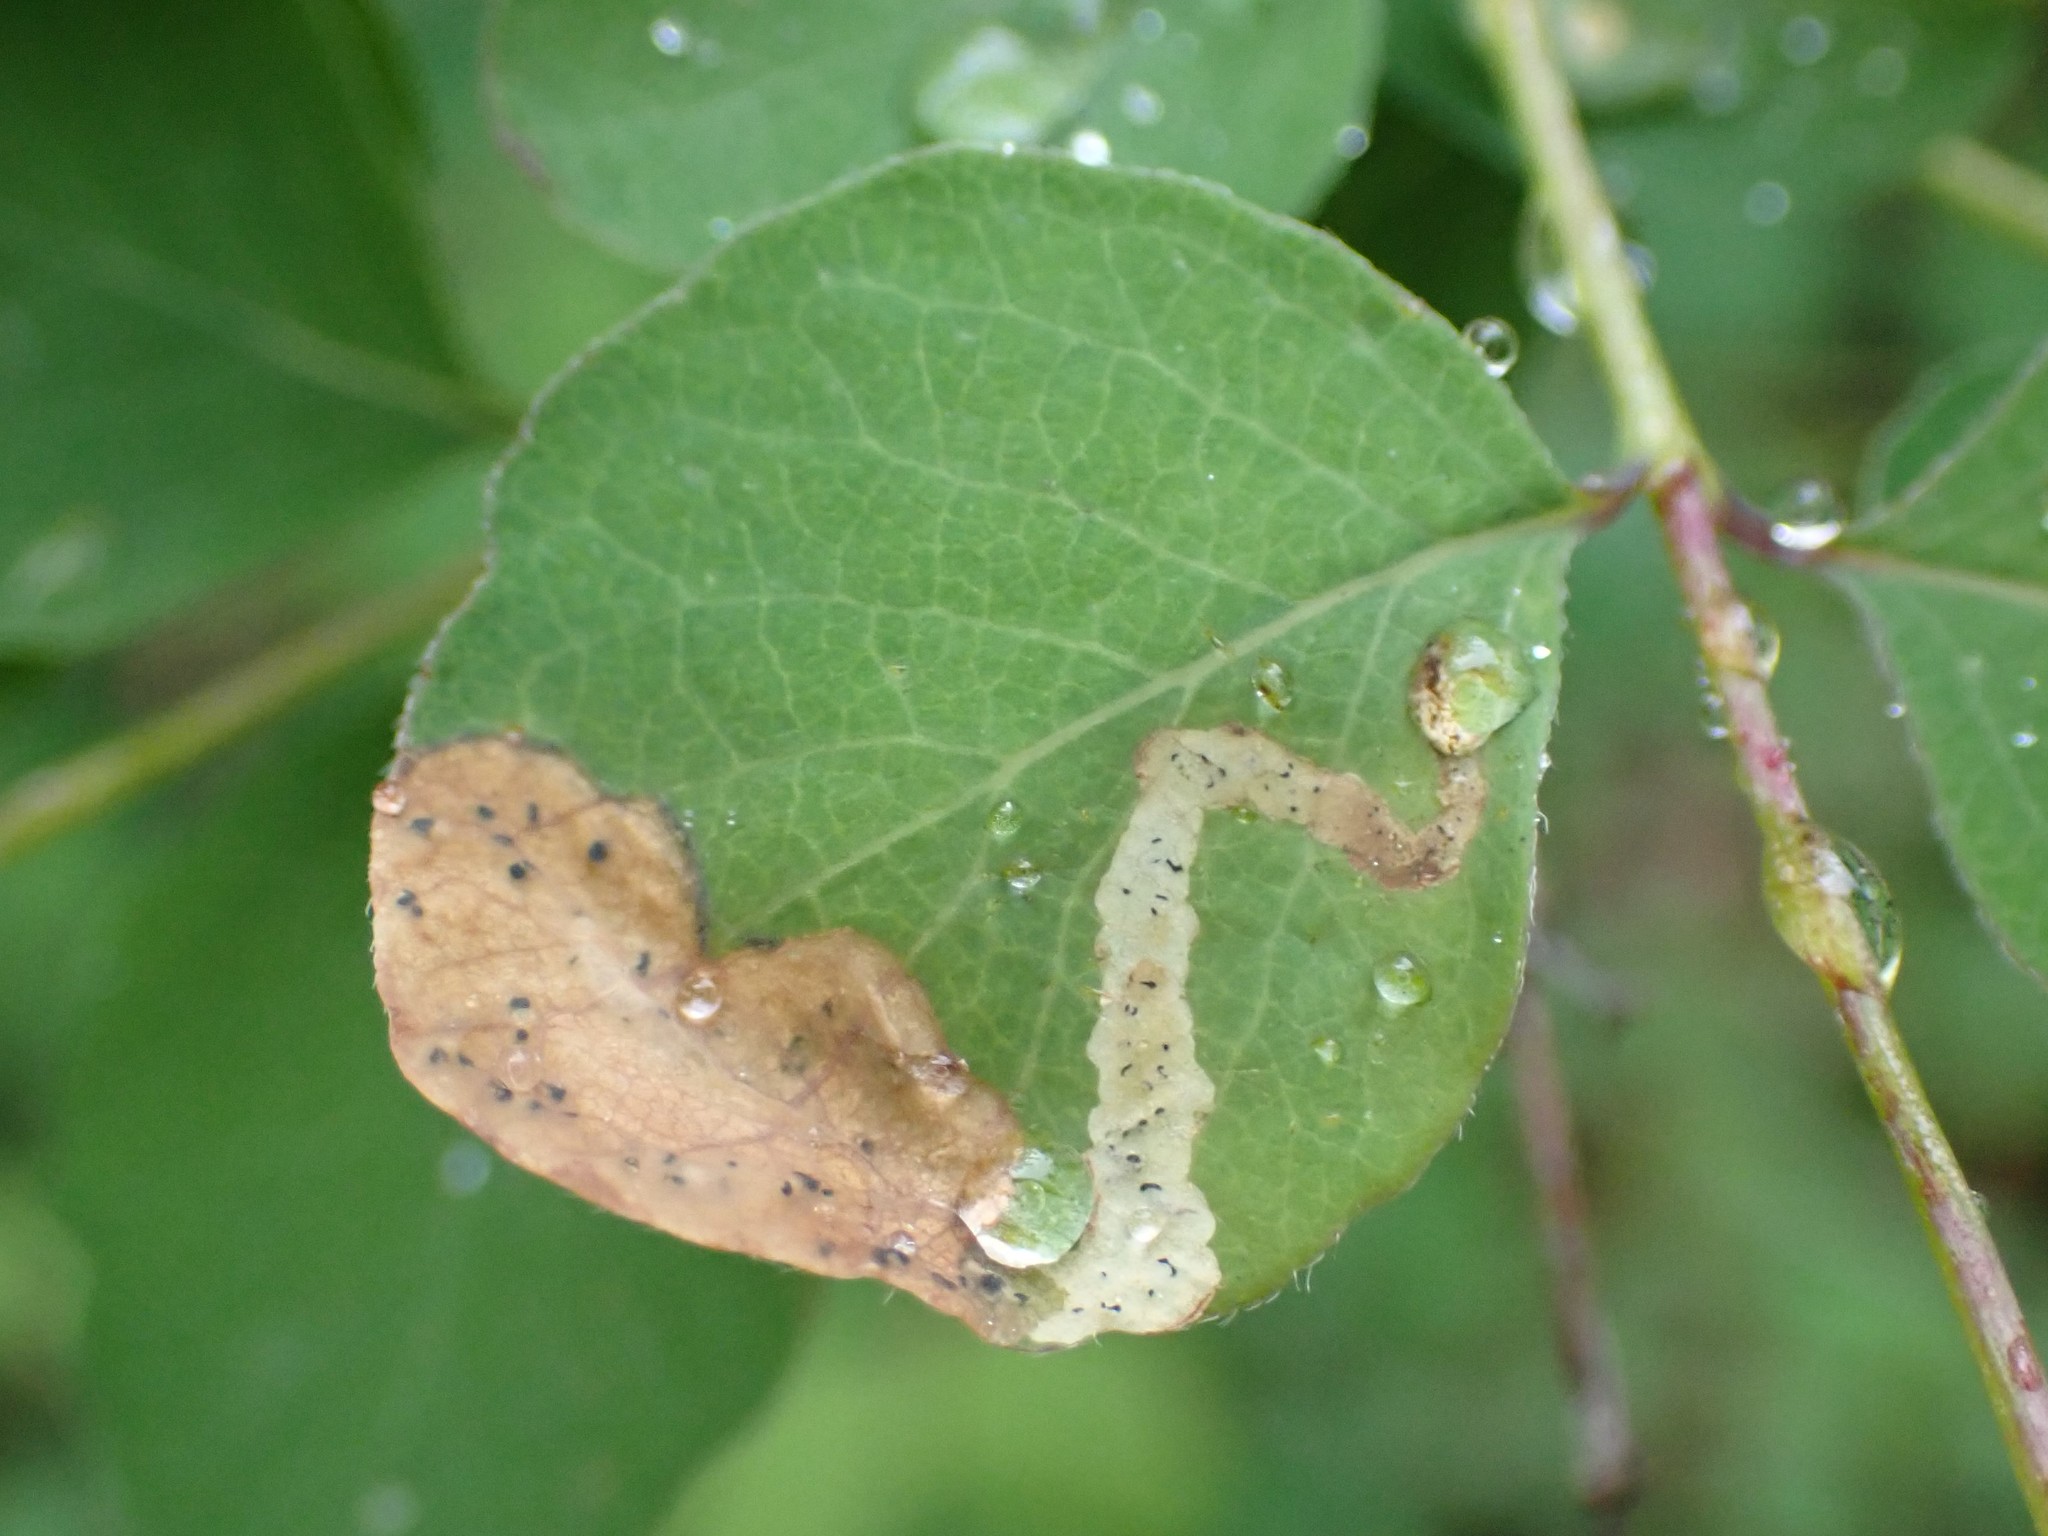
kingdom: Animalia
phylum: Arthropoda
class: Insecta
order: Diptera
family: Agromyzidae
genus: Aulagromyza
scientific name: Aulagromyza cornigera
